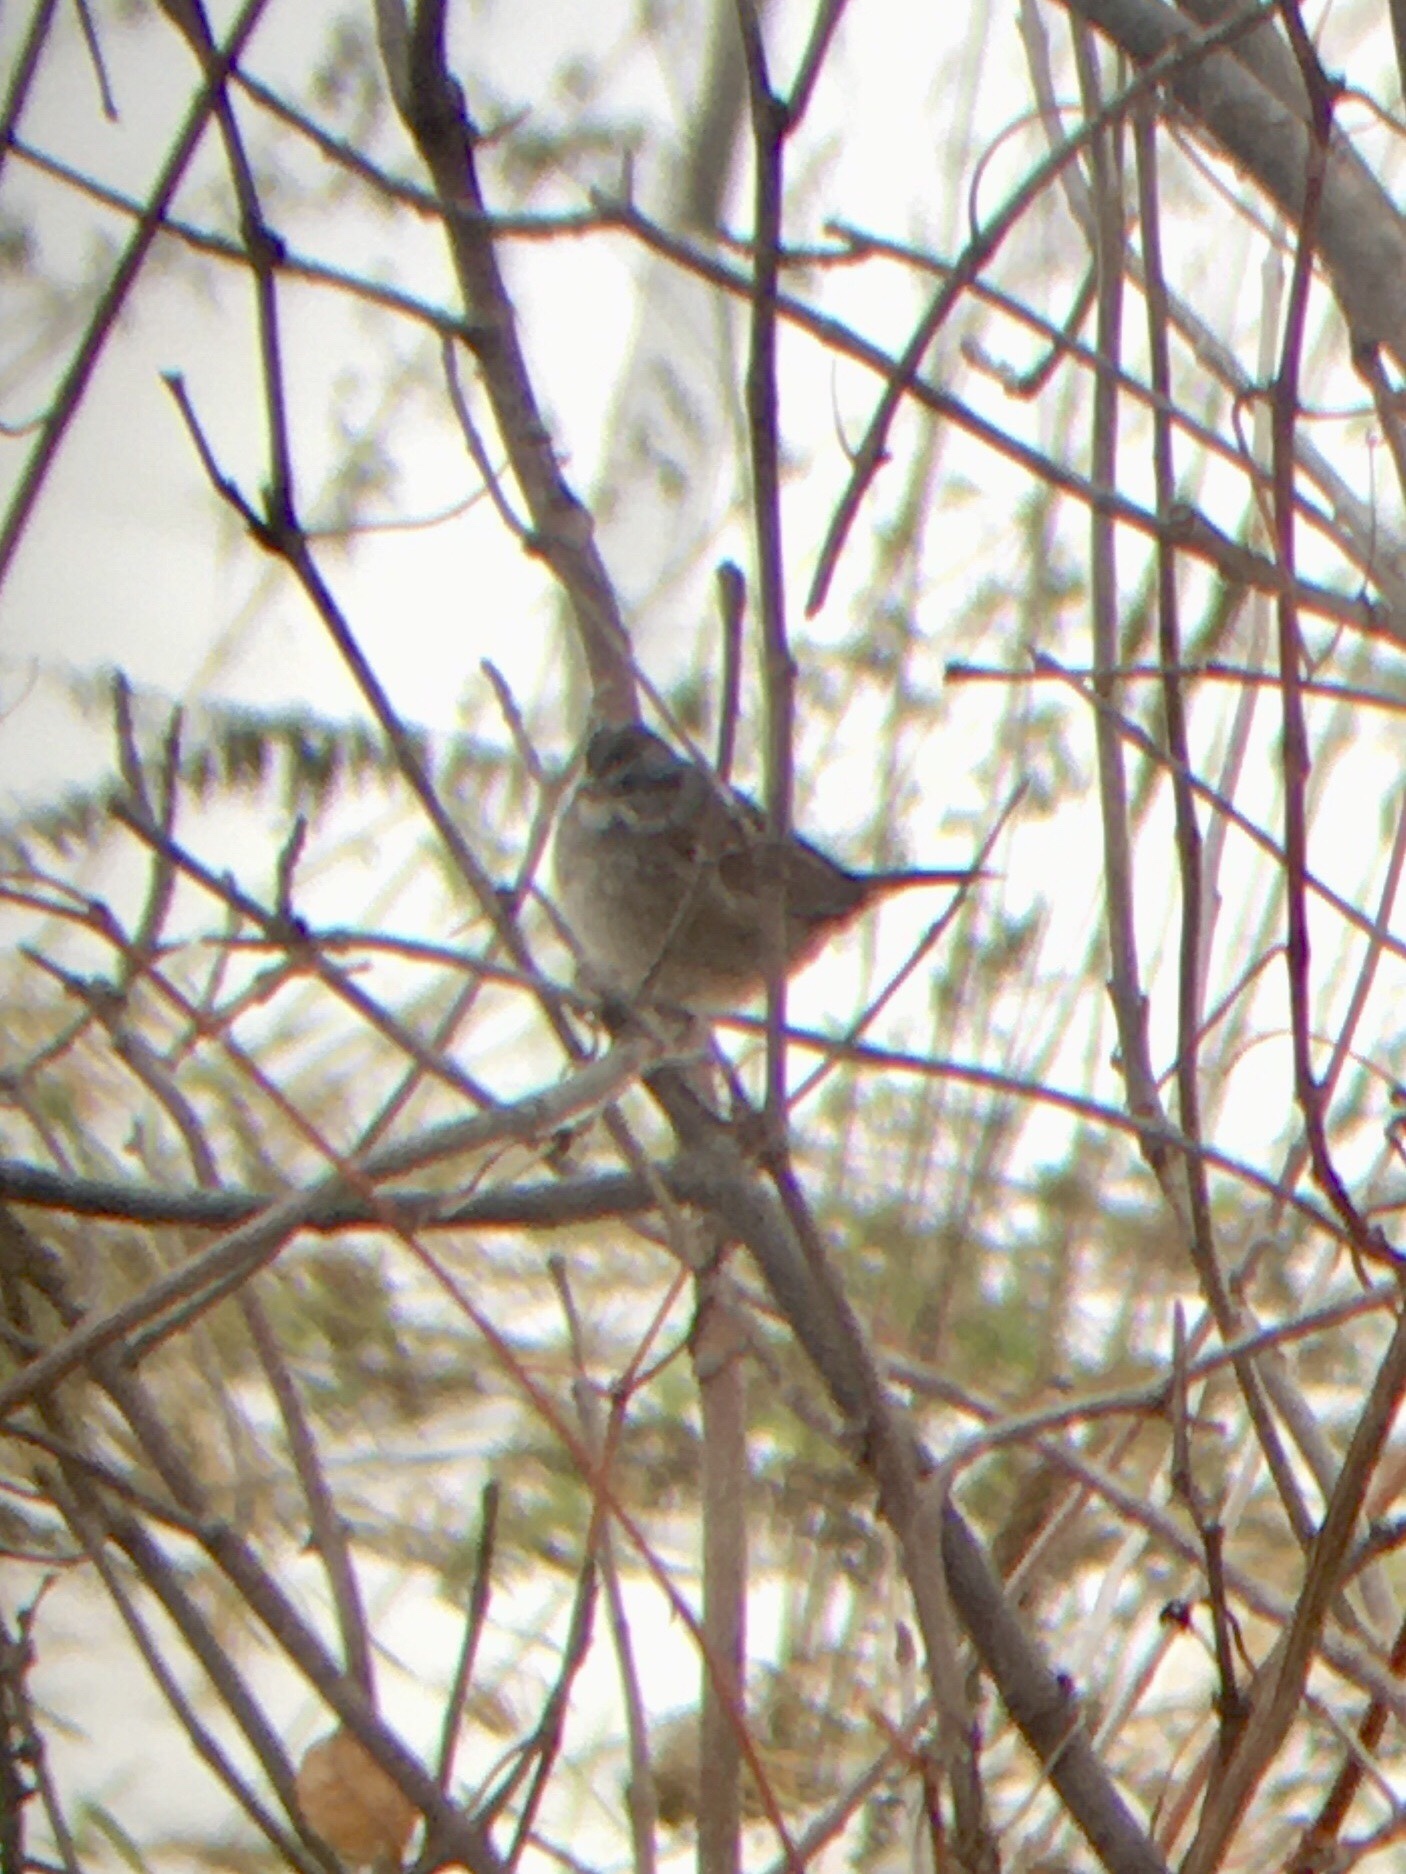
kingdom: Animalia
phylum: Chordata
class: Aves
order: Passeriformes
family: Passerellidae
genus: Melospiza
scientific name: Melospiza georgiana
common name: Swamp sparrow
